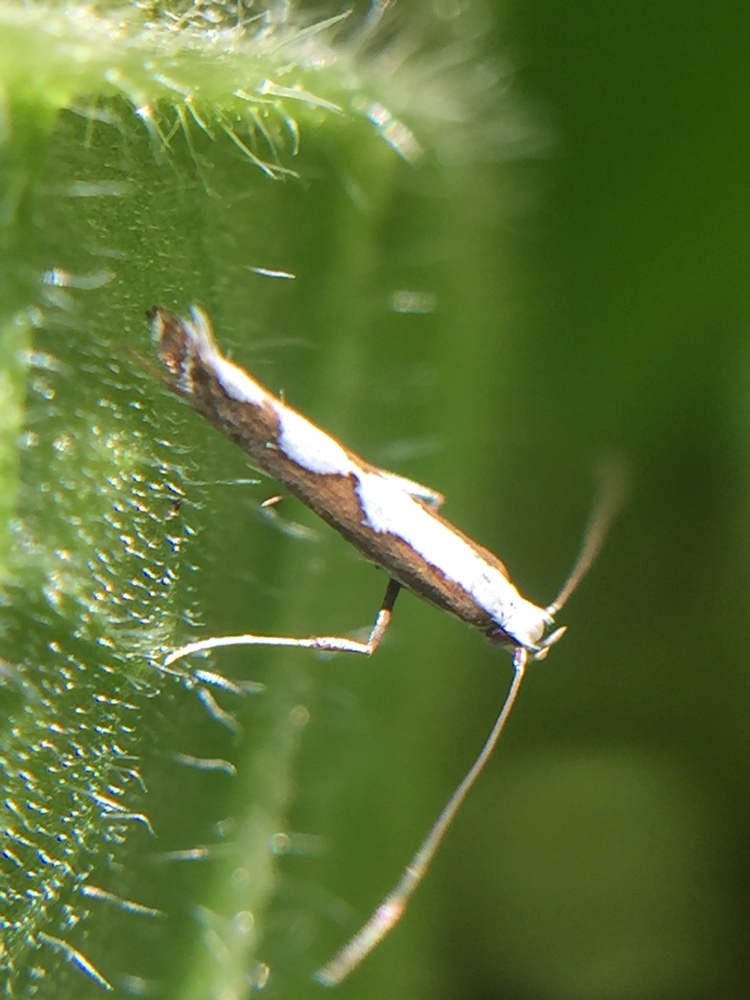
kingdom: Animalia
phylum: Arthropoda
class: Insecta
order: Lepidoptera
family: Gracillariidae
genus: Dialectica
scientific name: Dialectica scalariella
